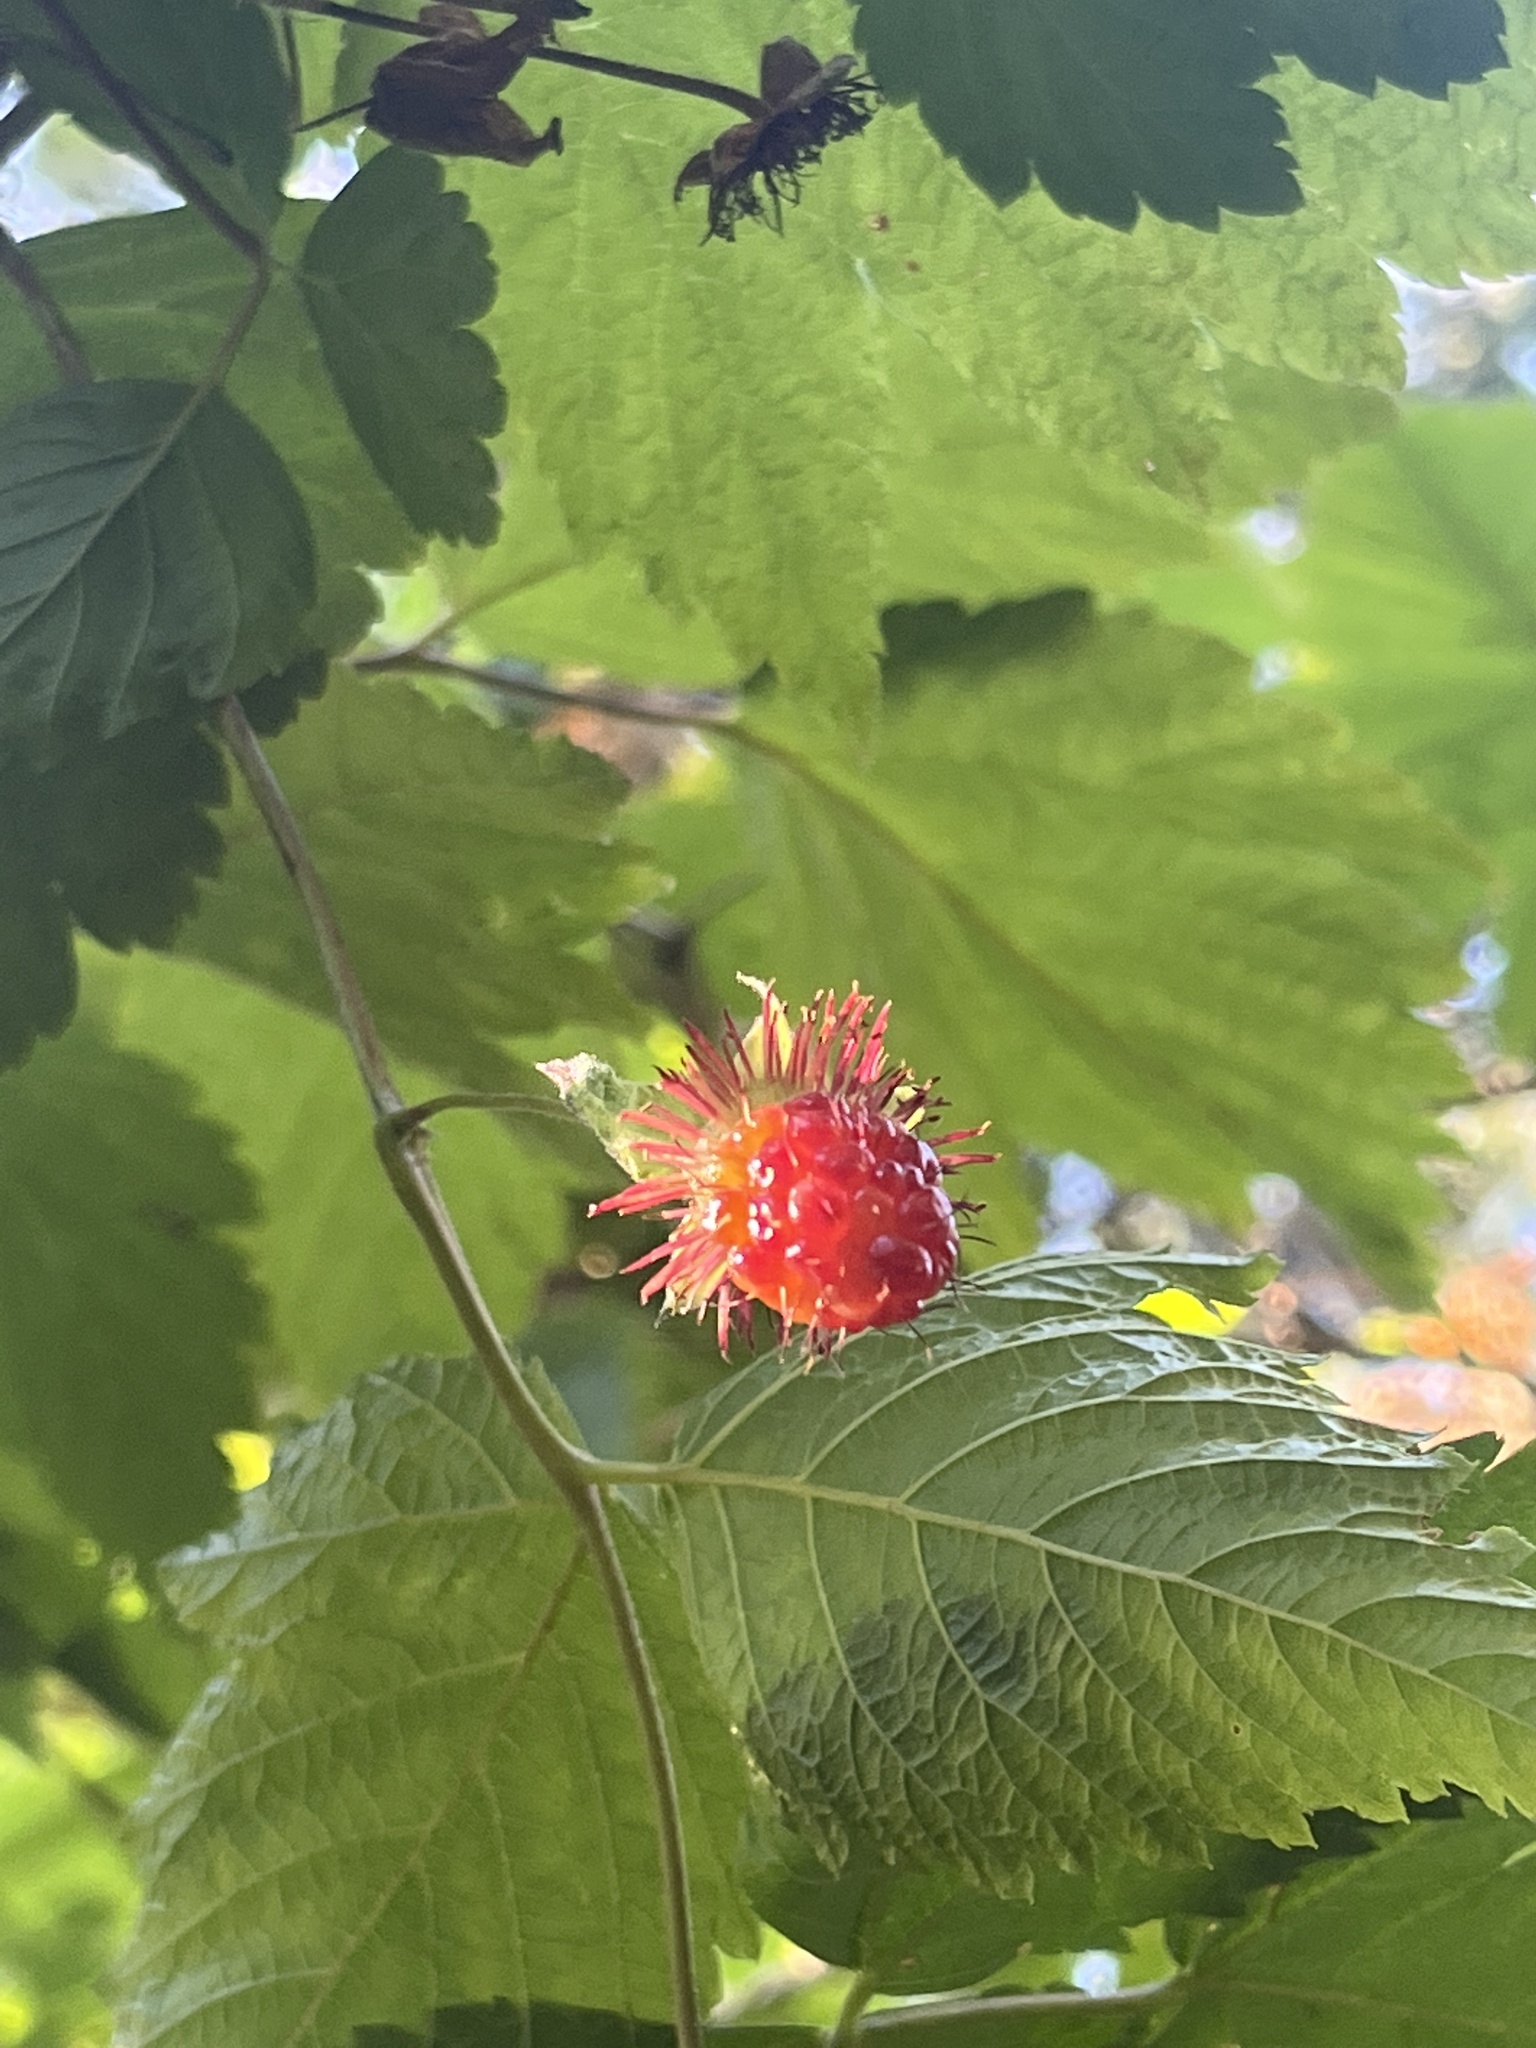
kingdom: Plantae
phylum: Tracheophyta
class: Magnoliopsida
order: Rosales
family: Rosaceae
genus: Rubus
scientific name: Rubus spectabilis
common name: Salmonberry
